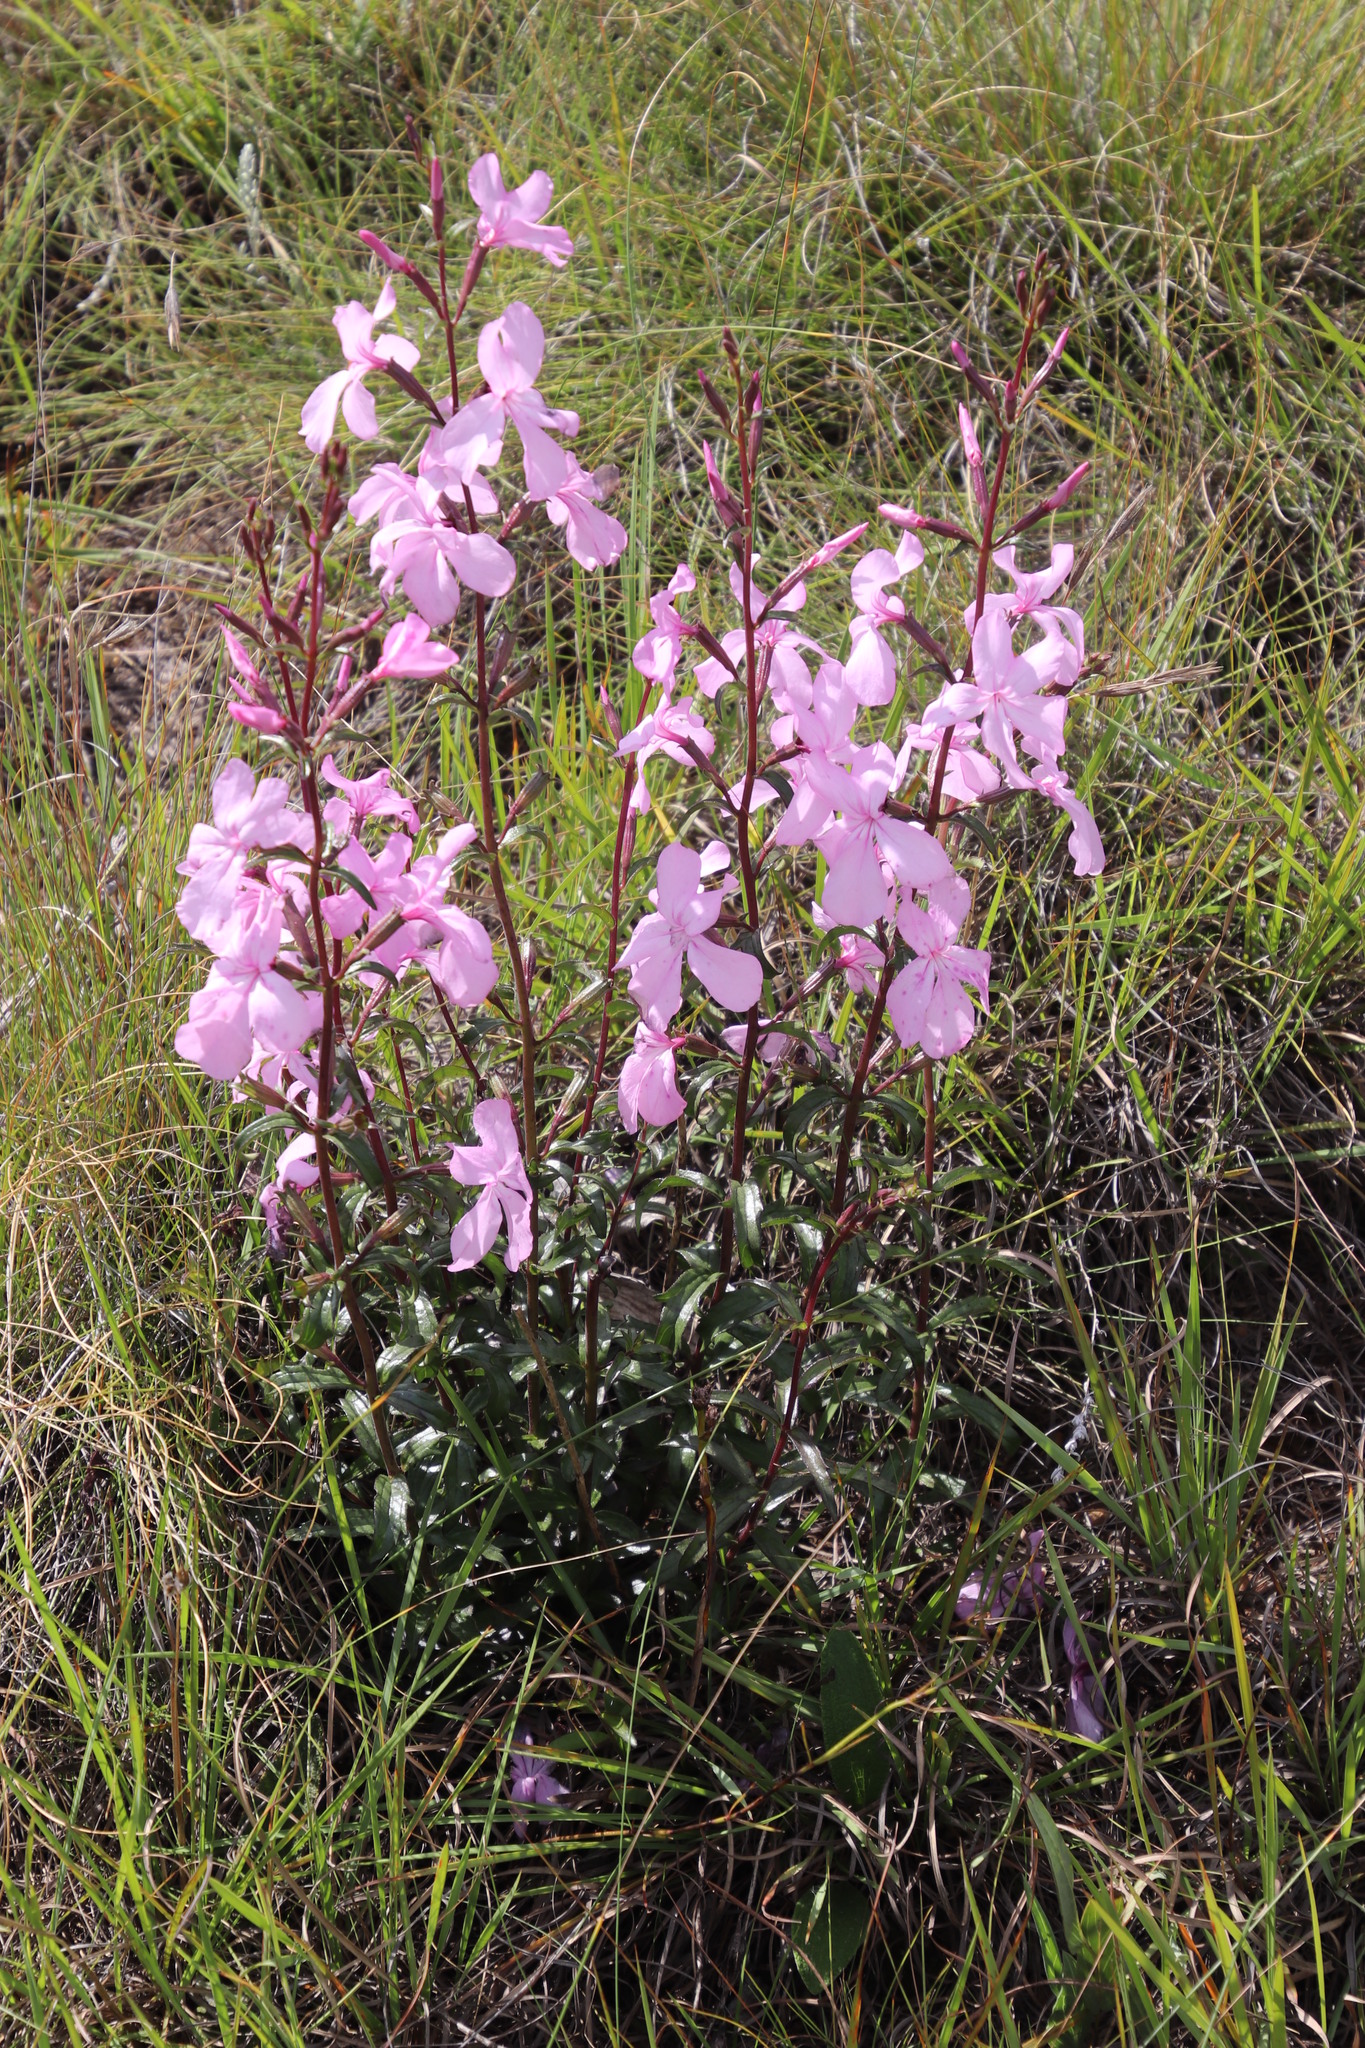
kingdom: Plantae
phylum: Tracheophyta
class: Magnoliopsida
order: Lamiales
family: Orobanchaceae
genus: Cycnium
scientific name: Cycnium racemosum
